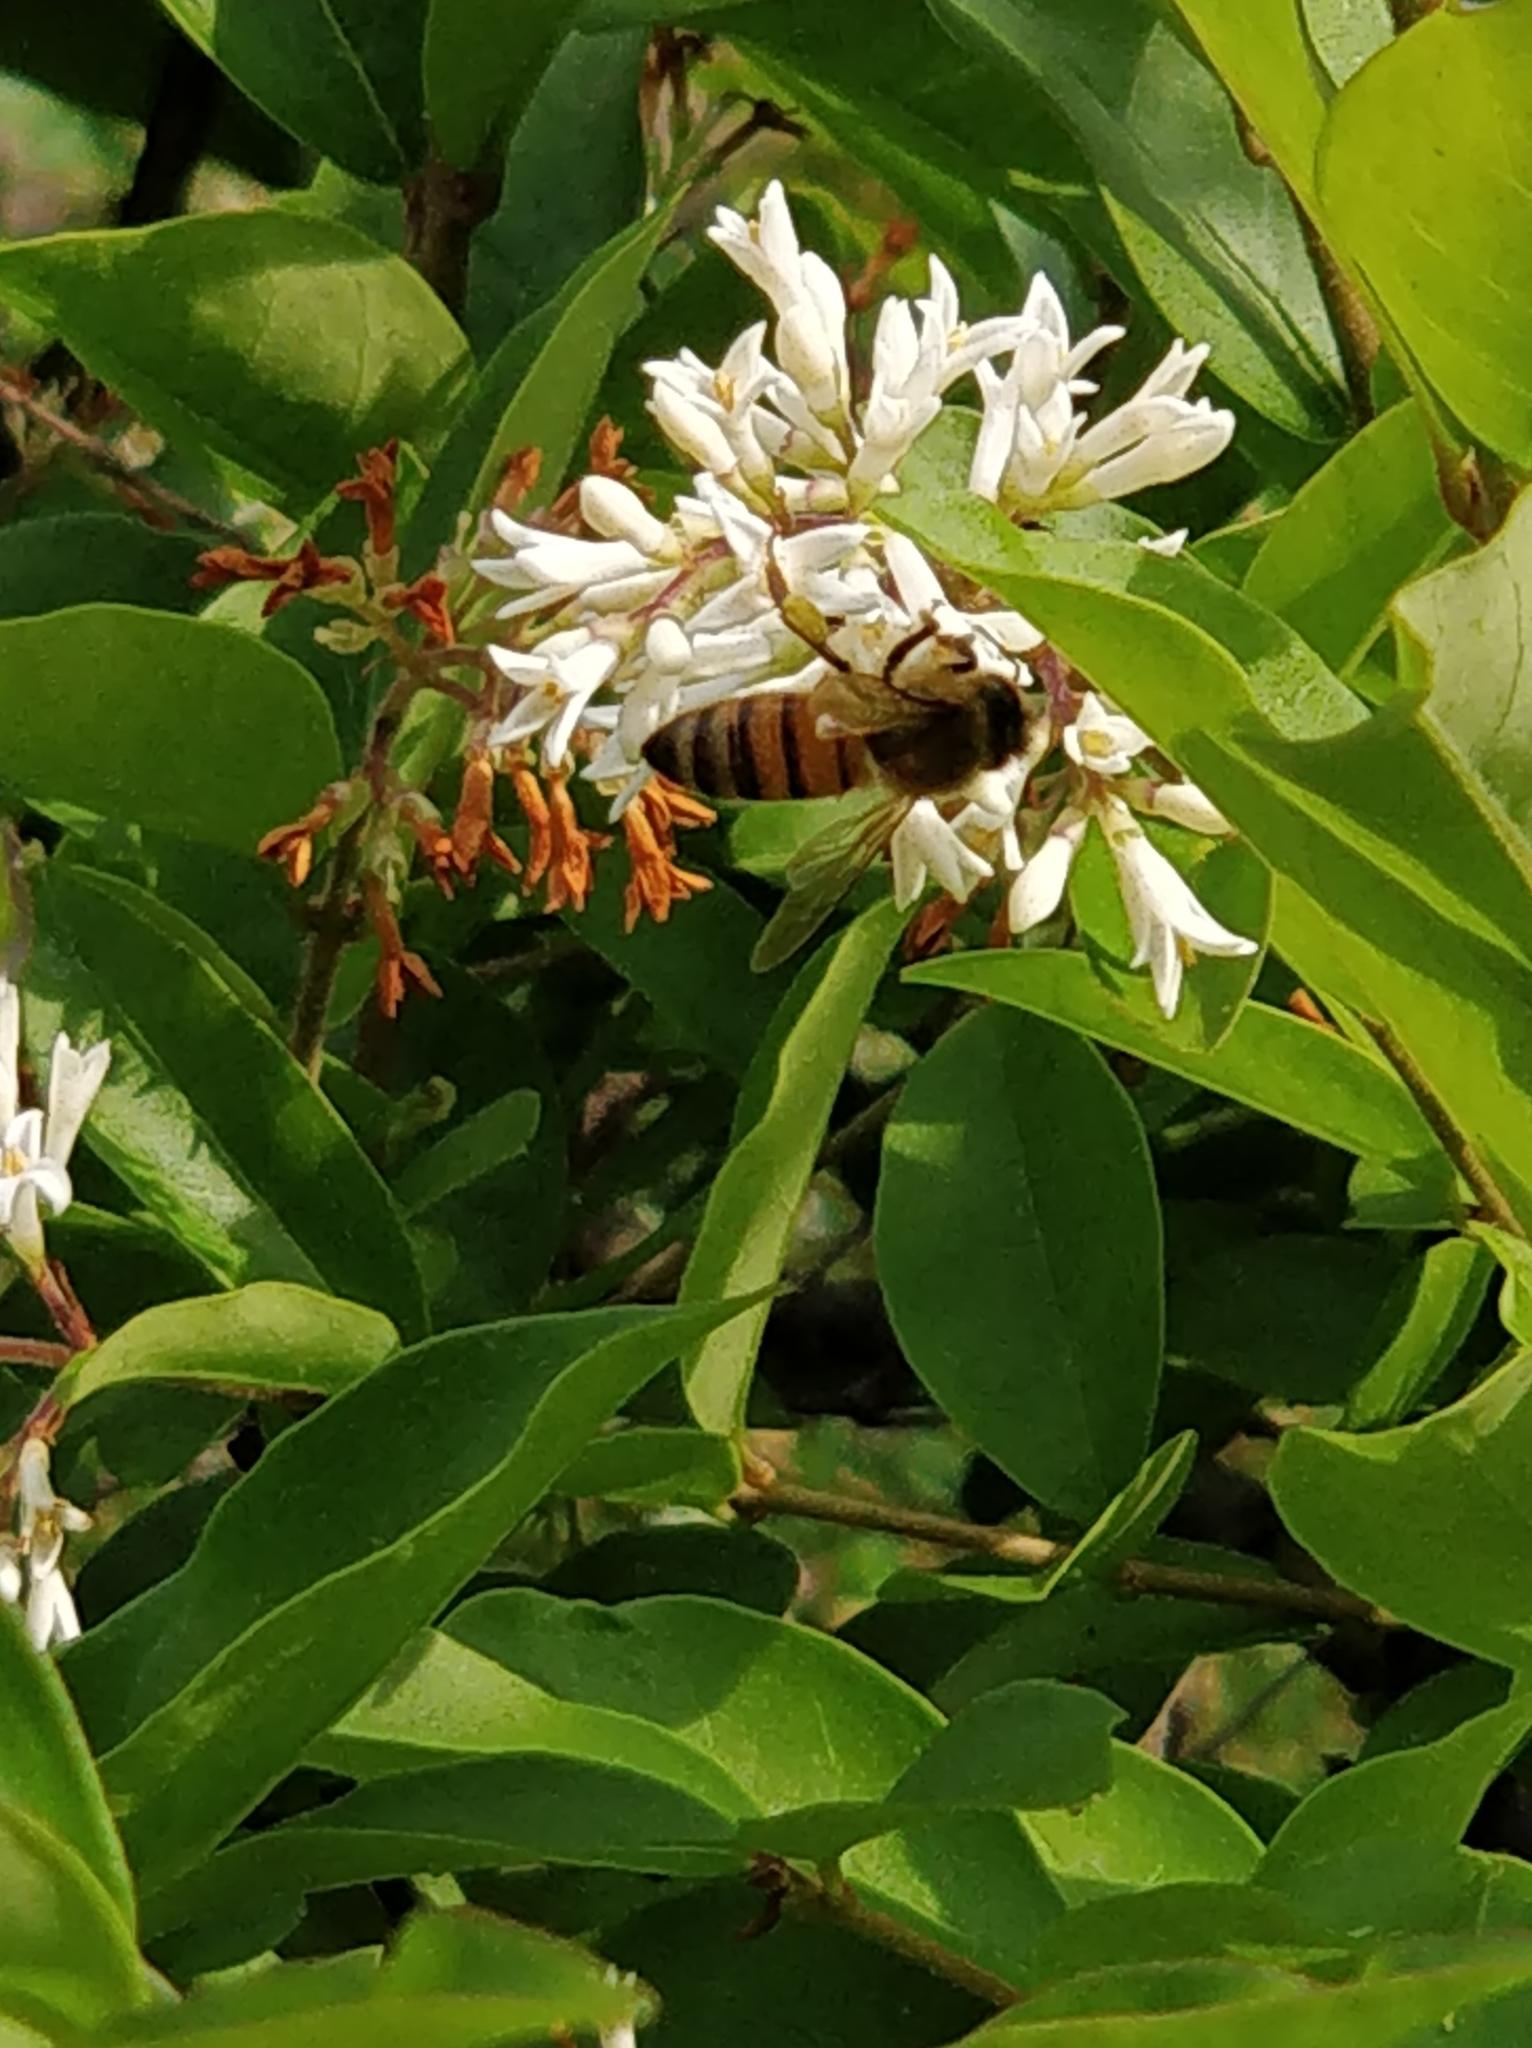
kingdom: Animalia
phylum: Arthropoda
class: Insecta
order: Hymenoptera
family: Apidae
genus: Apis
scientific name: Apis mellifera
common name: Honey bee
